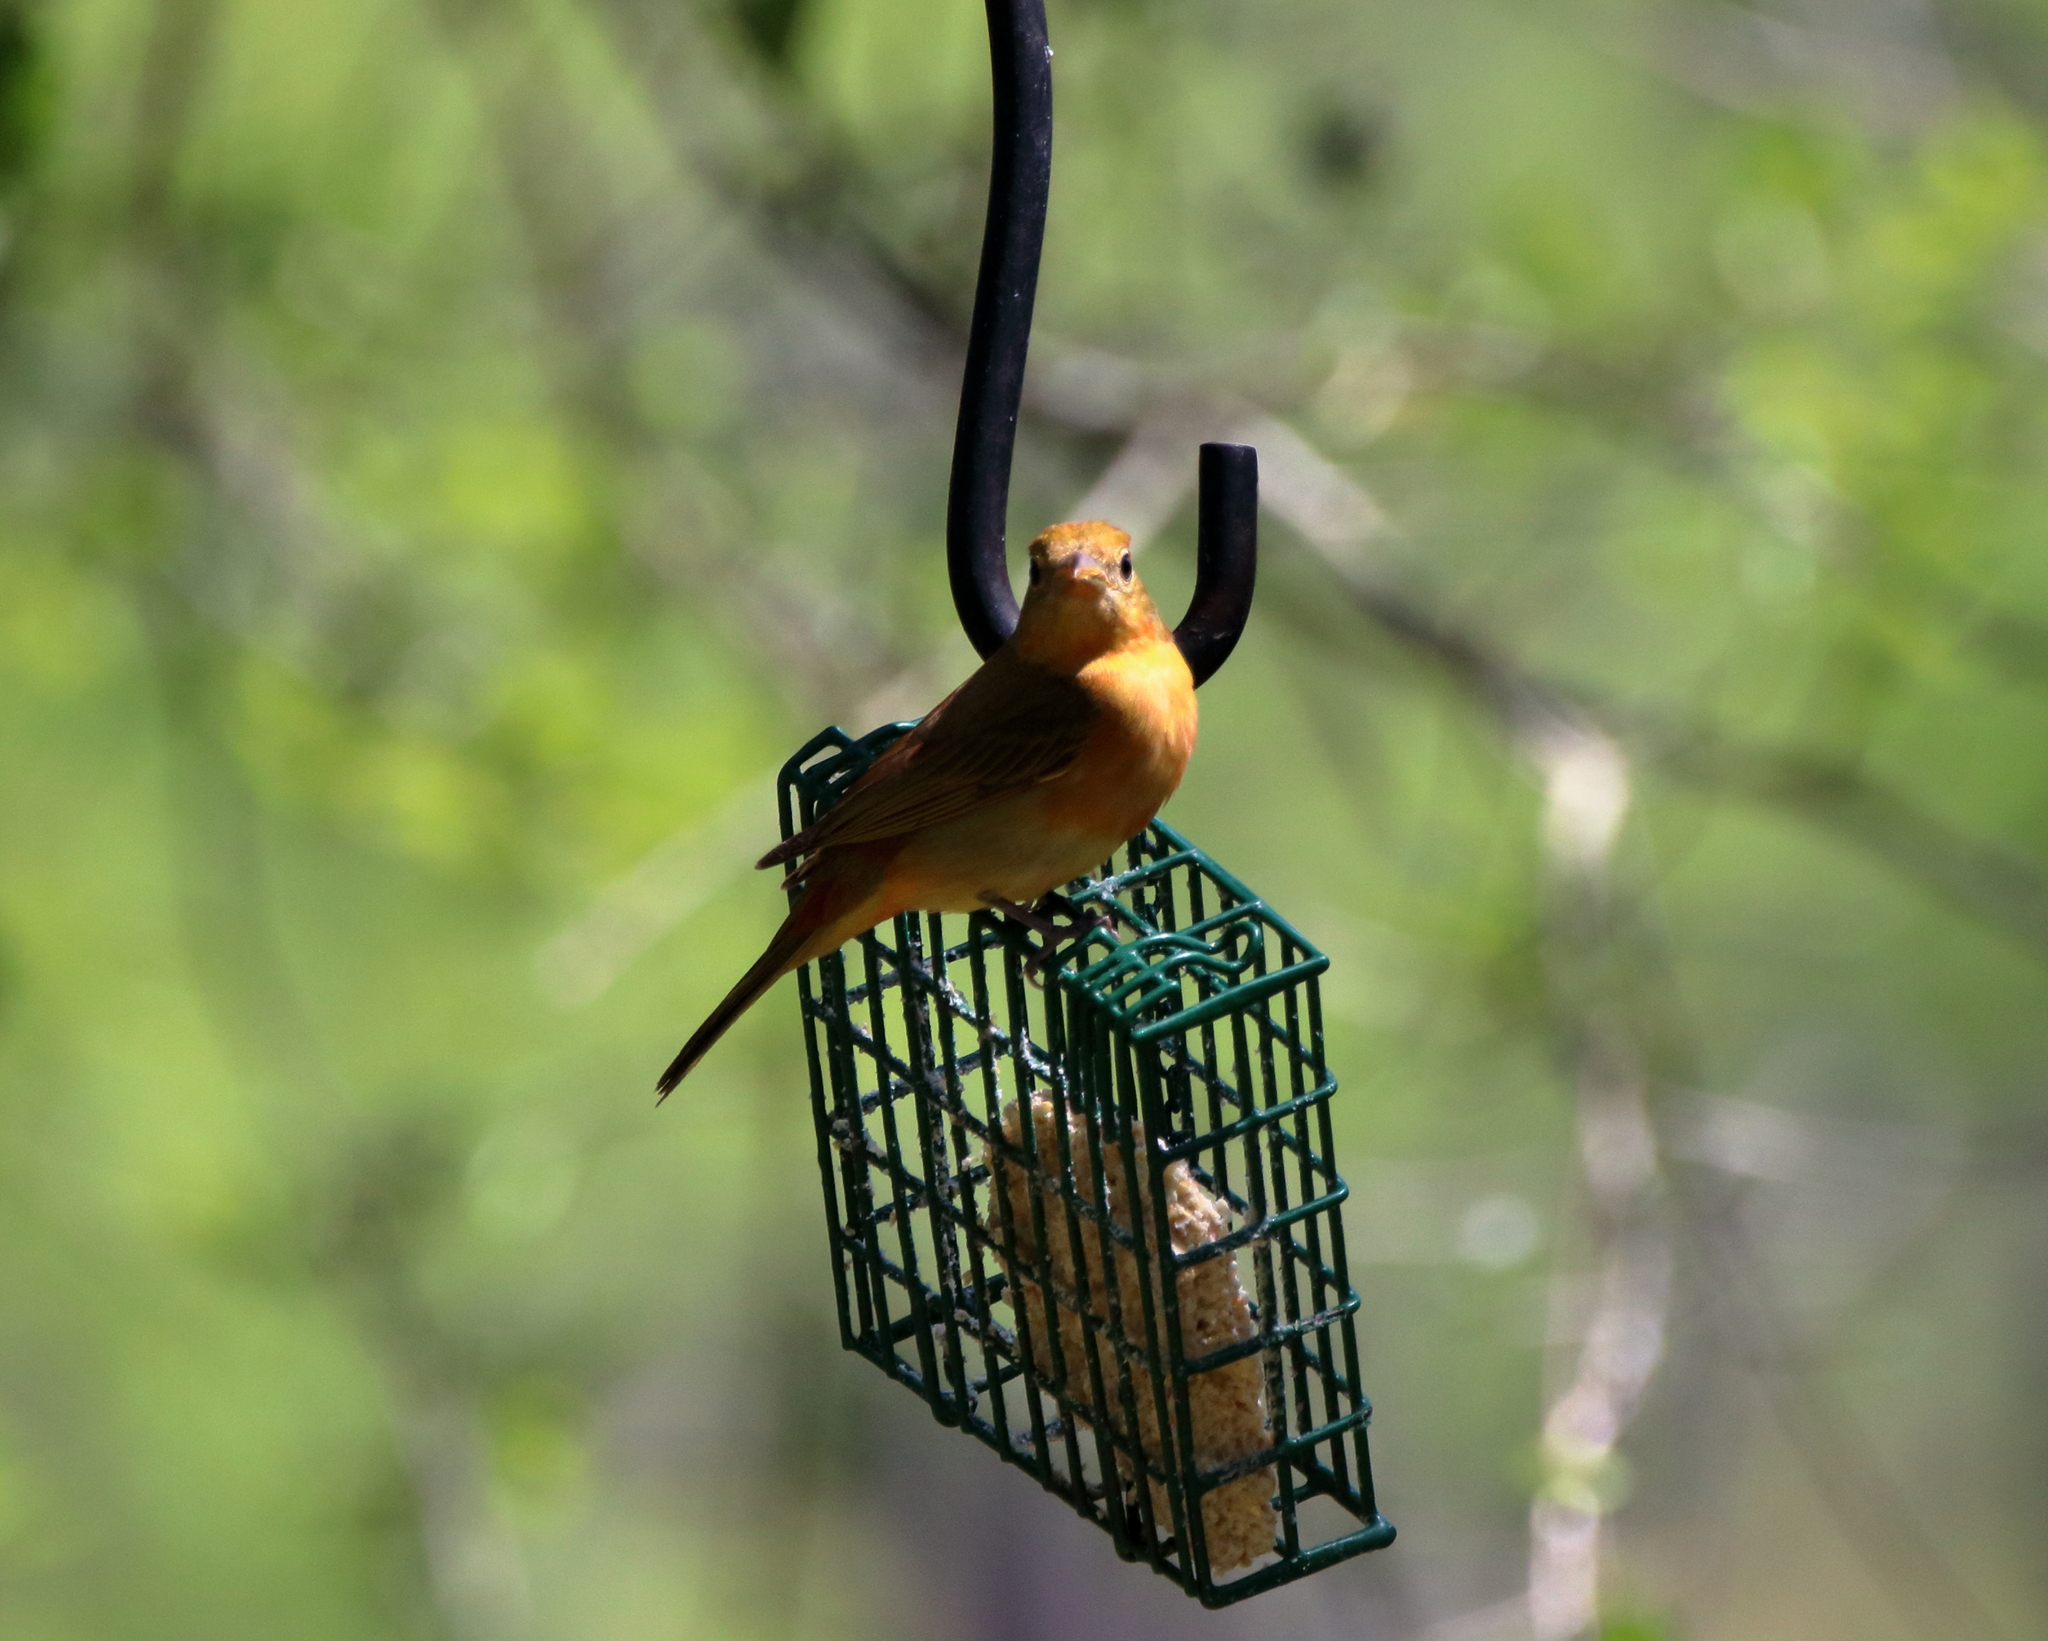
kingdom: Animalia
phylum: Chordata
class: Aves
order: Passeriformes
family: Cardinalidae
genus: Piranga
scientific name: Piranga rubra
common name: Summer tanager
